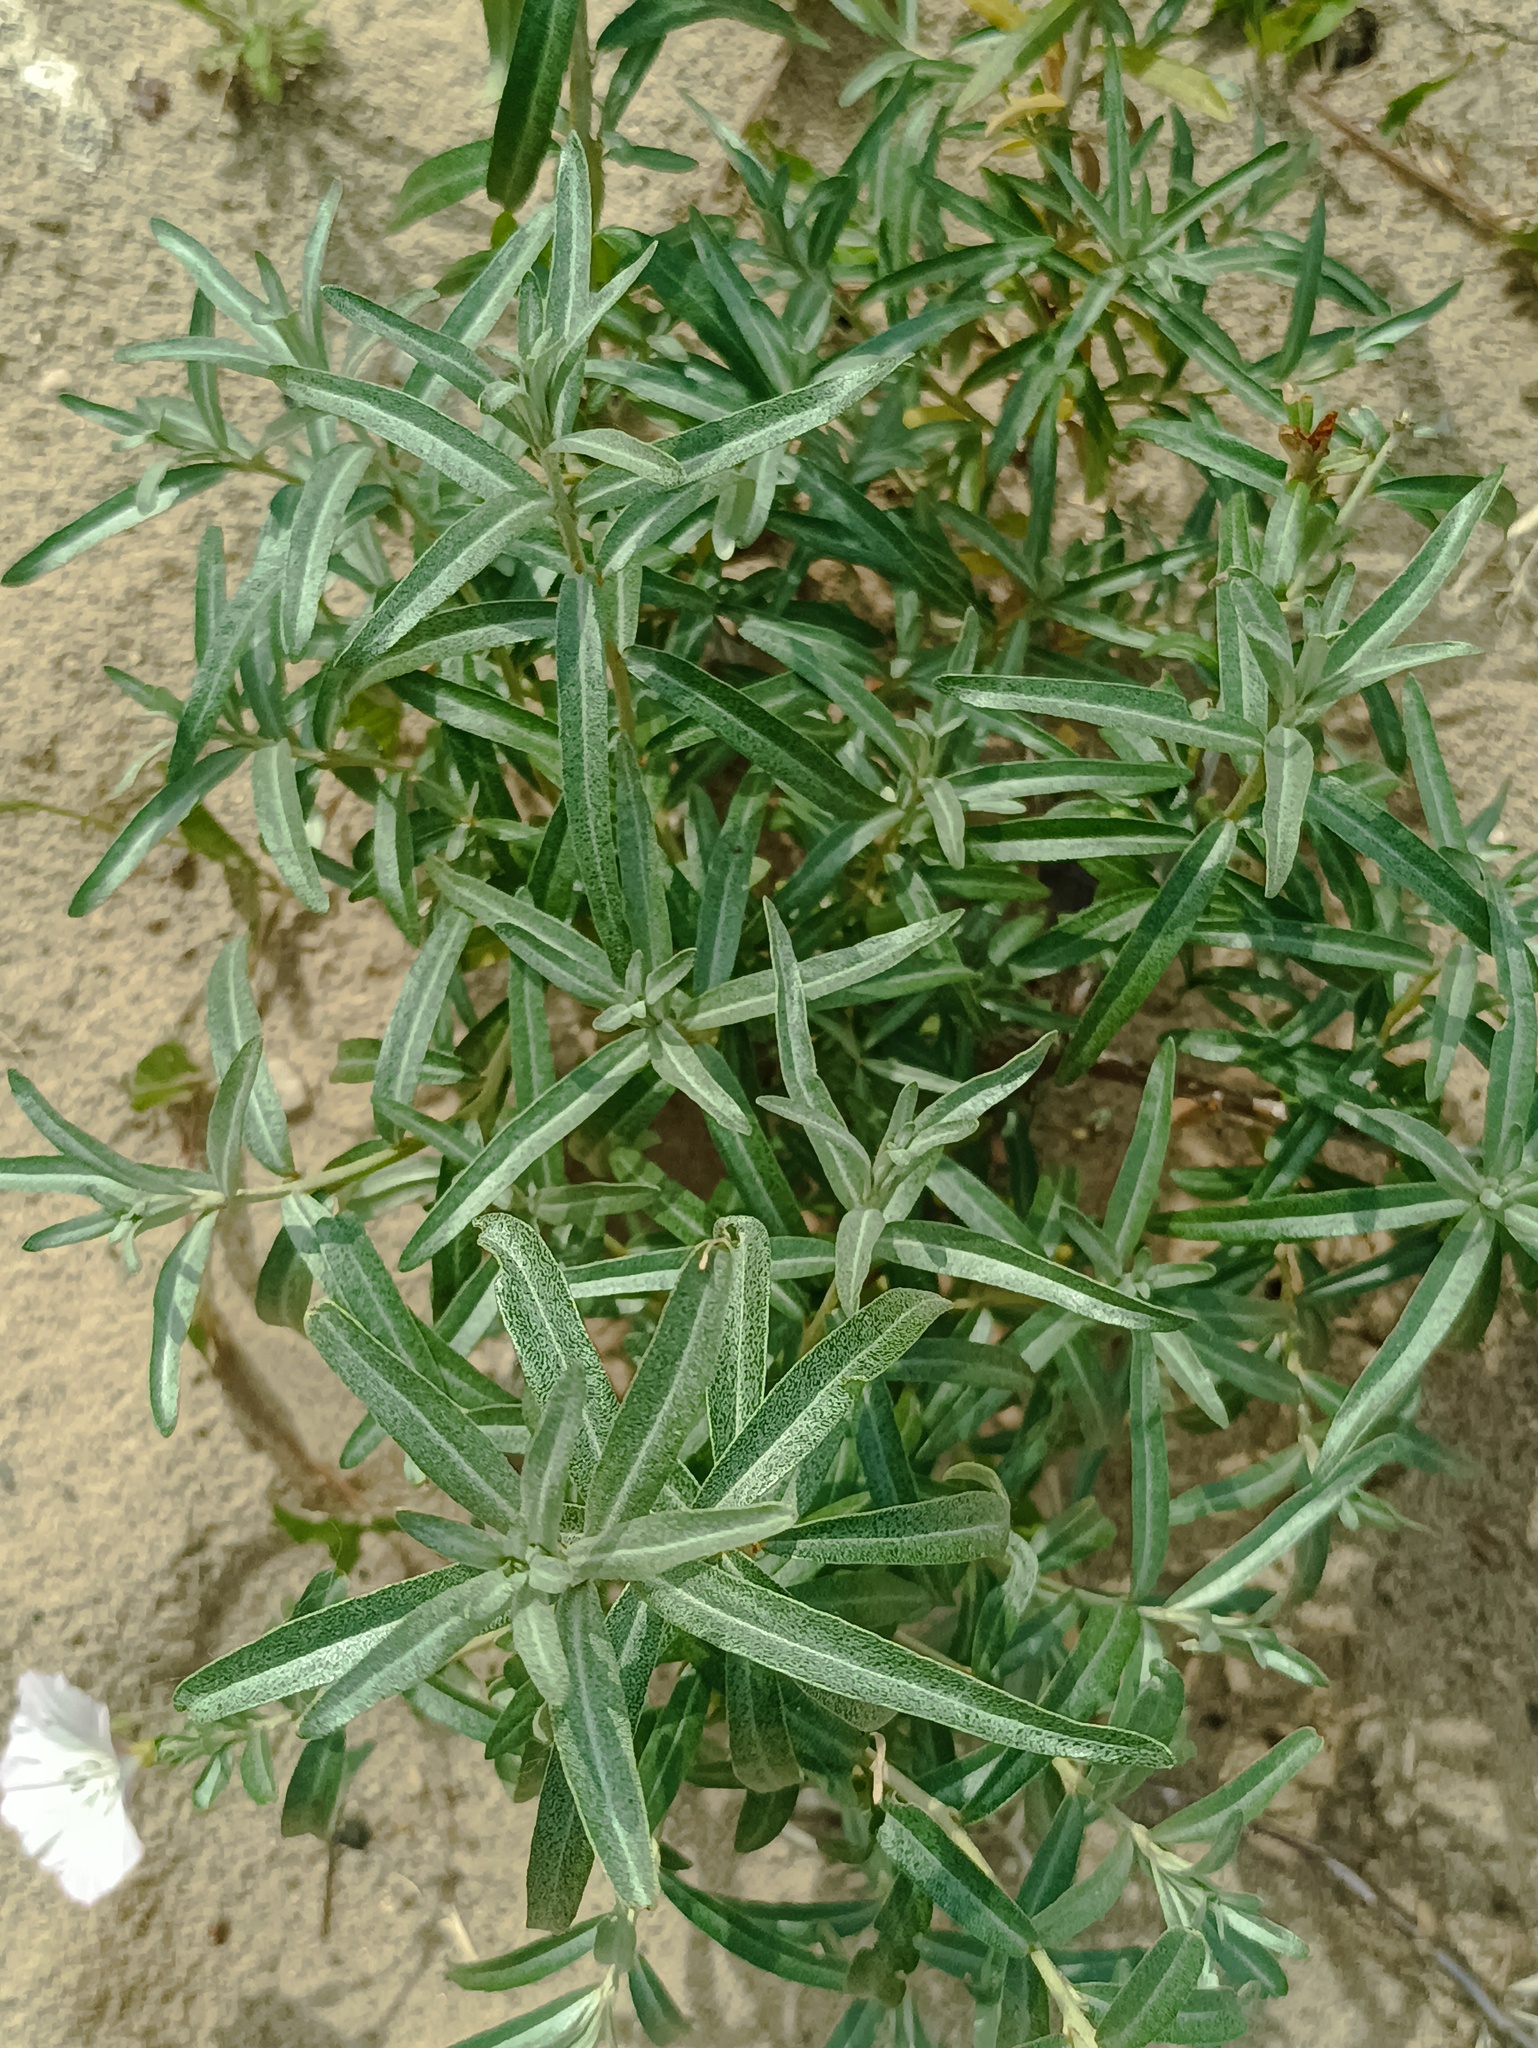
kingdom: Plantae
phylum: Tracheophyta
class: Magnoliopsida
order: Rosales
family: Elaeagnaceae
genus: Hippophae
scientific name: Hippophae rhamnoides
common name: Sea-buckthorn
